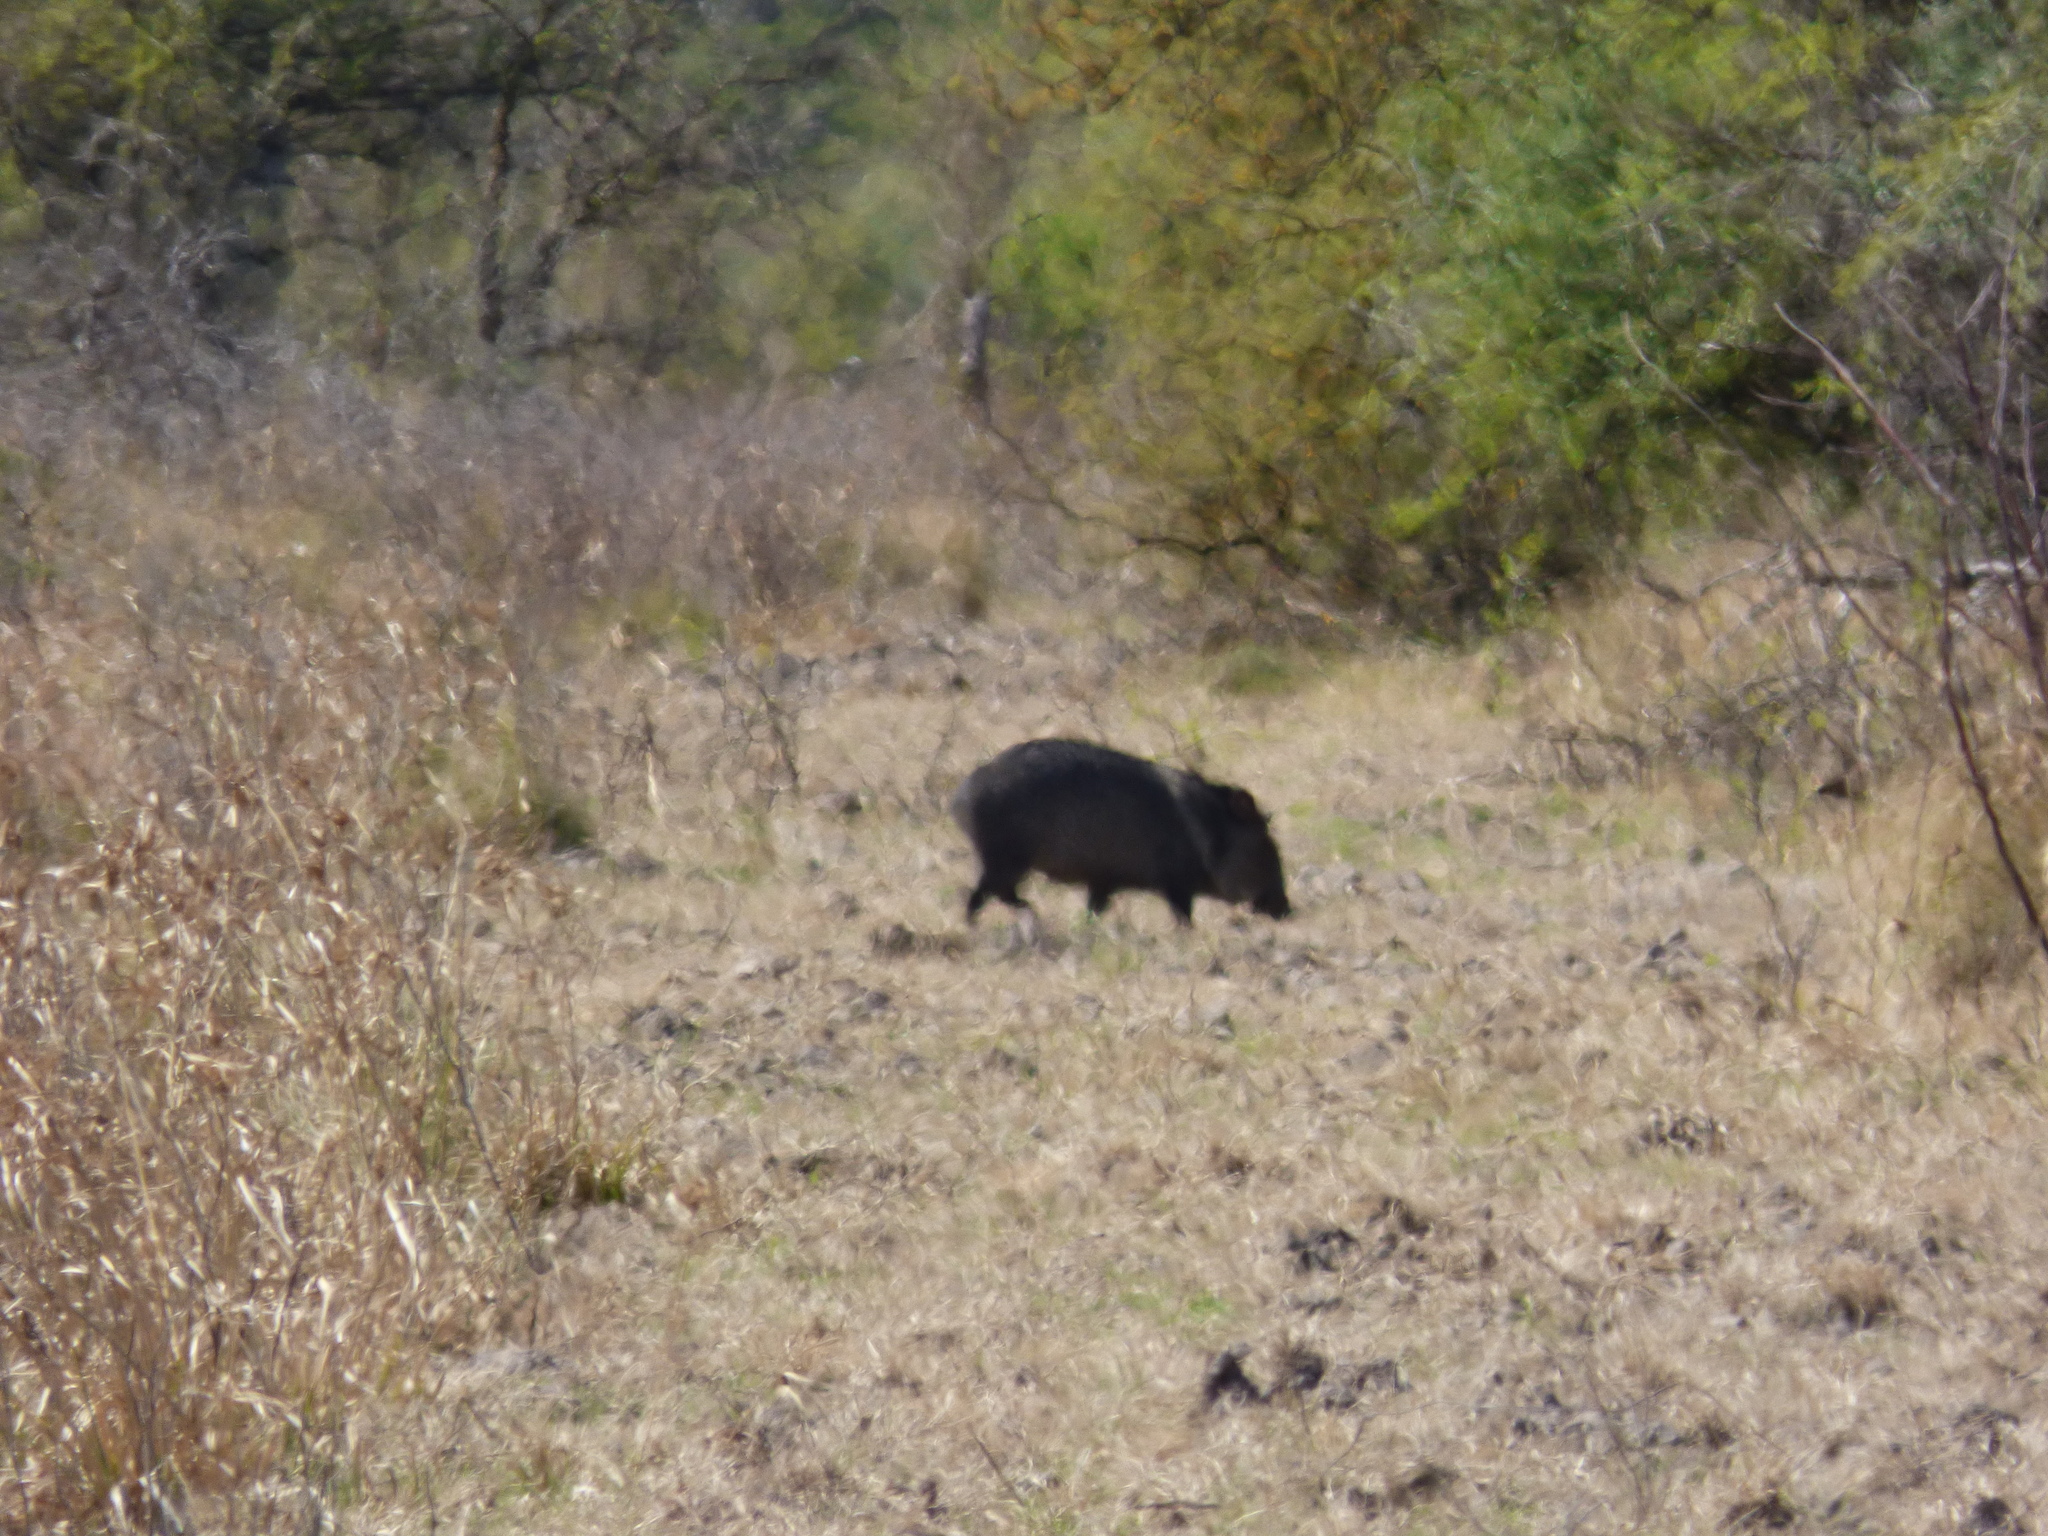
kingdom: Animalia
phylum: Chordata
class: Mammalia
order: Artiodactyla
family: Tayassuidae
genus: Pecari
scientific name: Pecari tajacu
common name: Collared peccary
